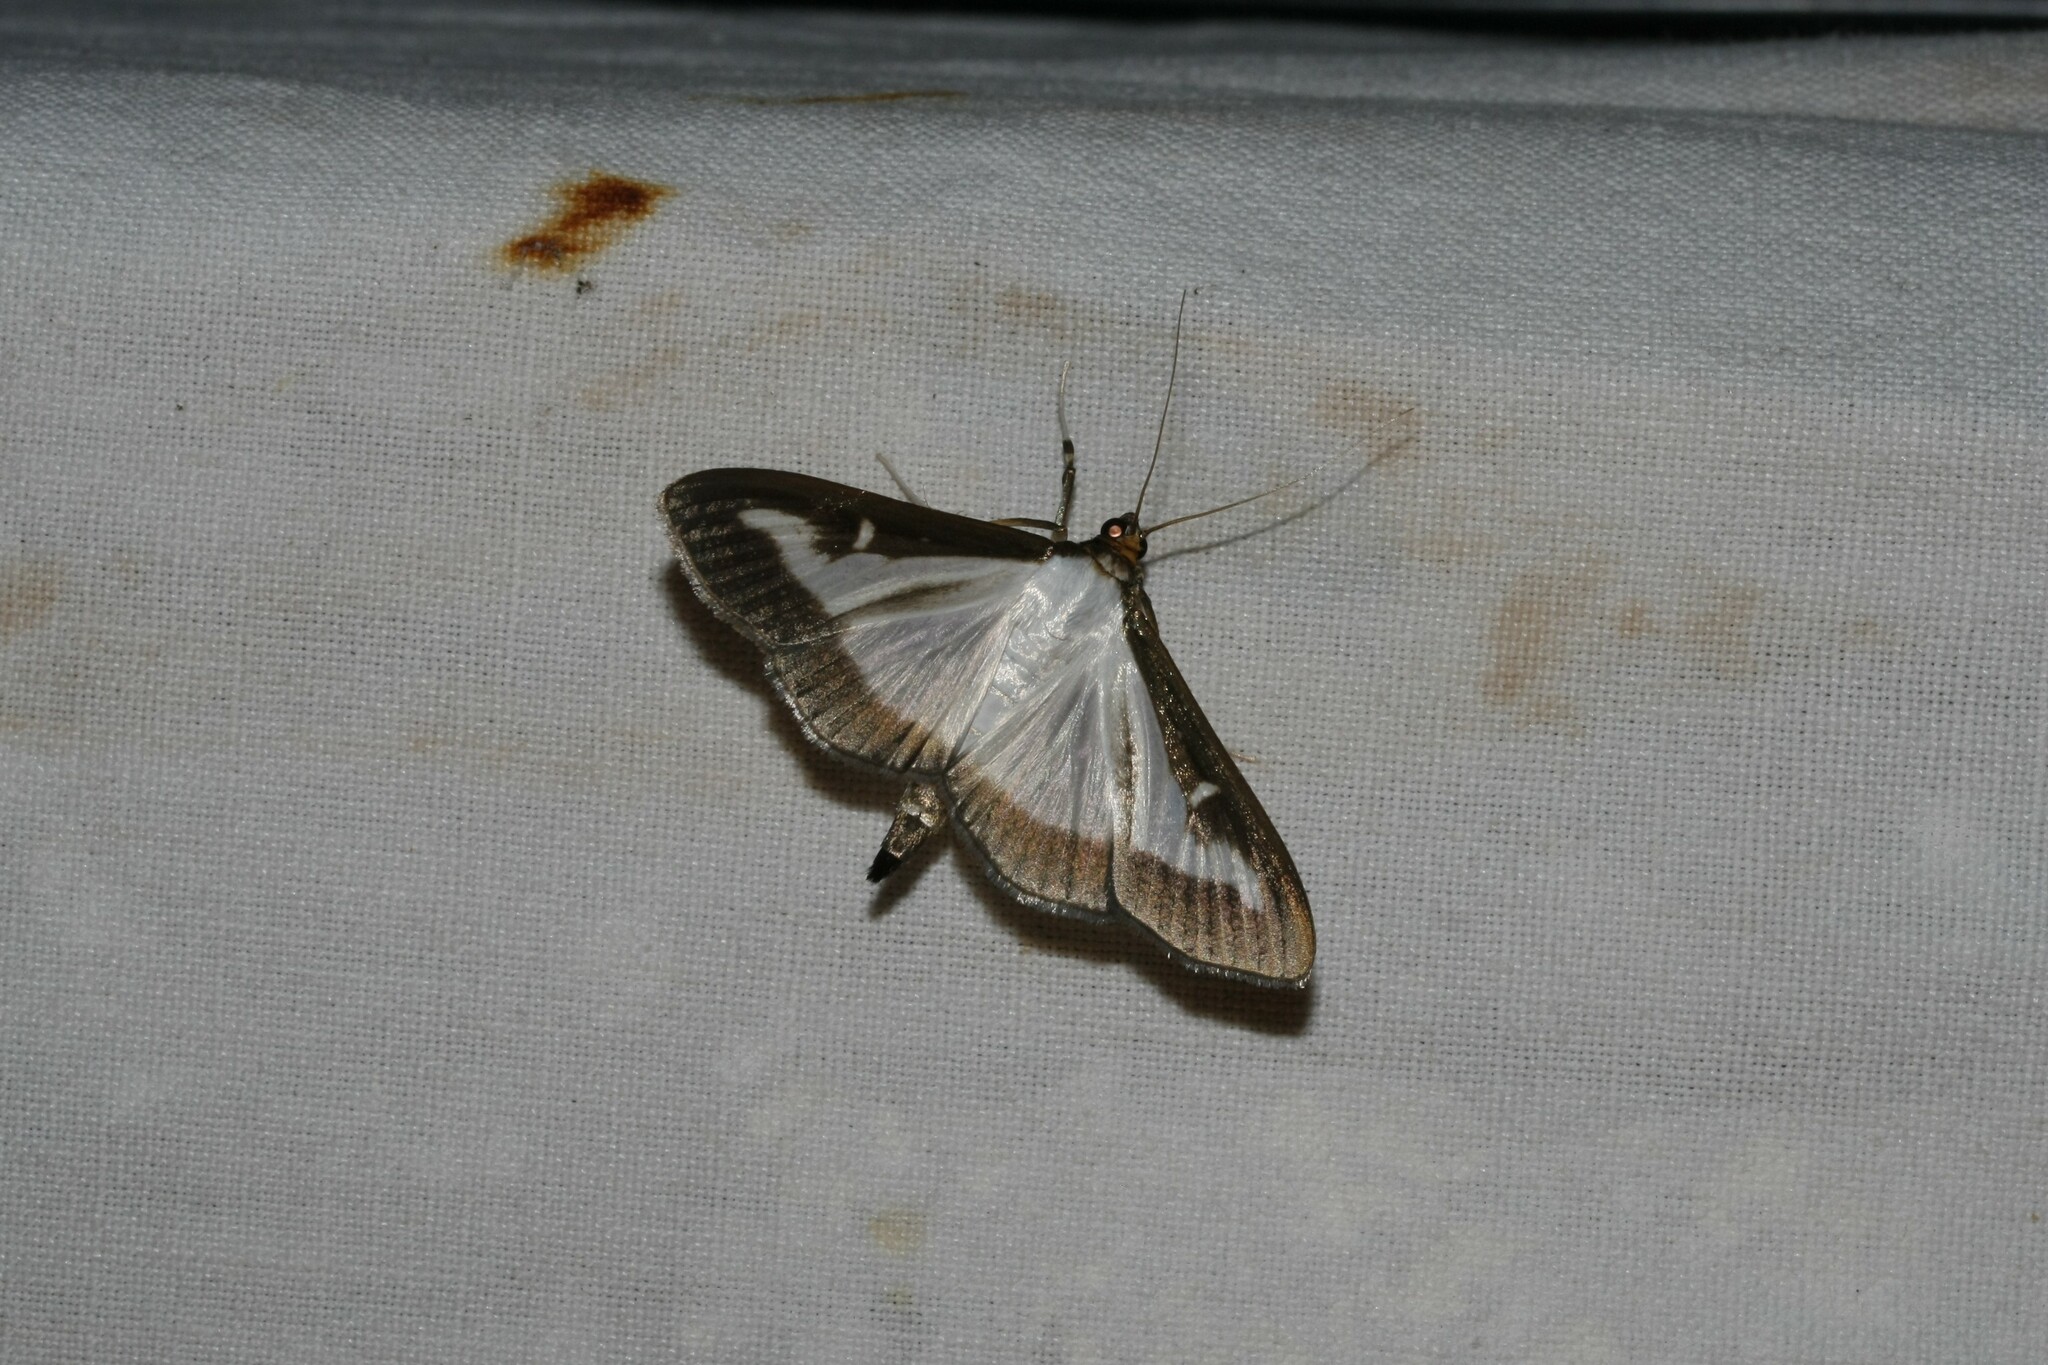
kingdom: Animalia
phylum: Arthropoda
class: Insecta
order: Lepidoptera
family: Crambidae
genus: Cydalima
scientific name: Cydalima perspectalis
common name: Box tree moth
